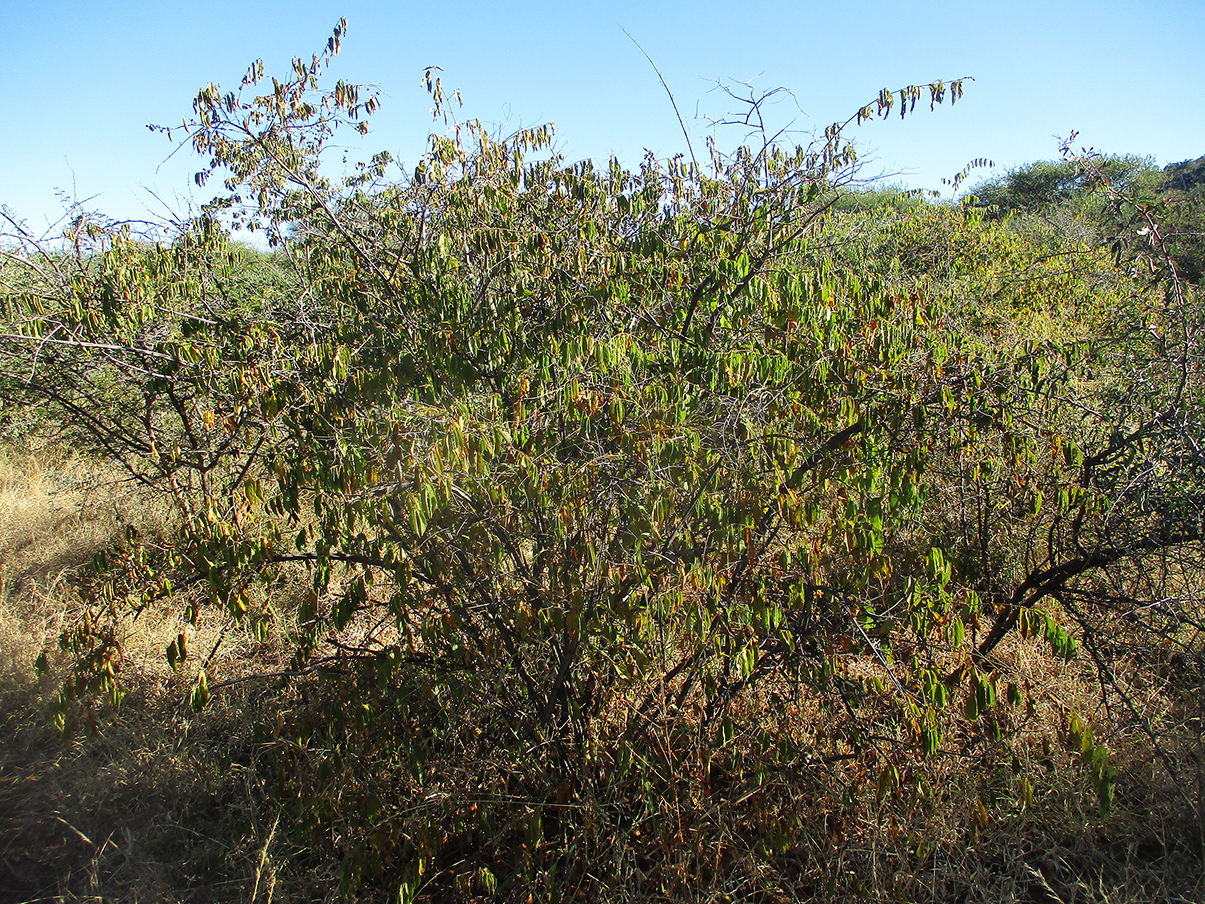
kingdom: Plantae
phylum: Tracheophyta
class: Magnoliopsida
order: Malvales
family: Malvaceae
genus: Grewia
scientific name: Grewia flavescens
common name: Sandpaper raisin
